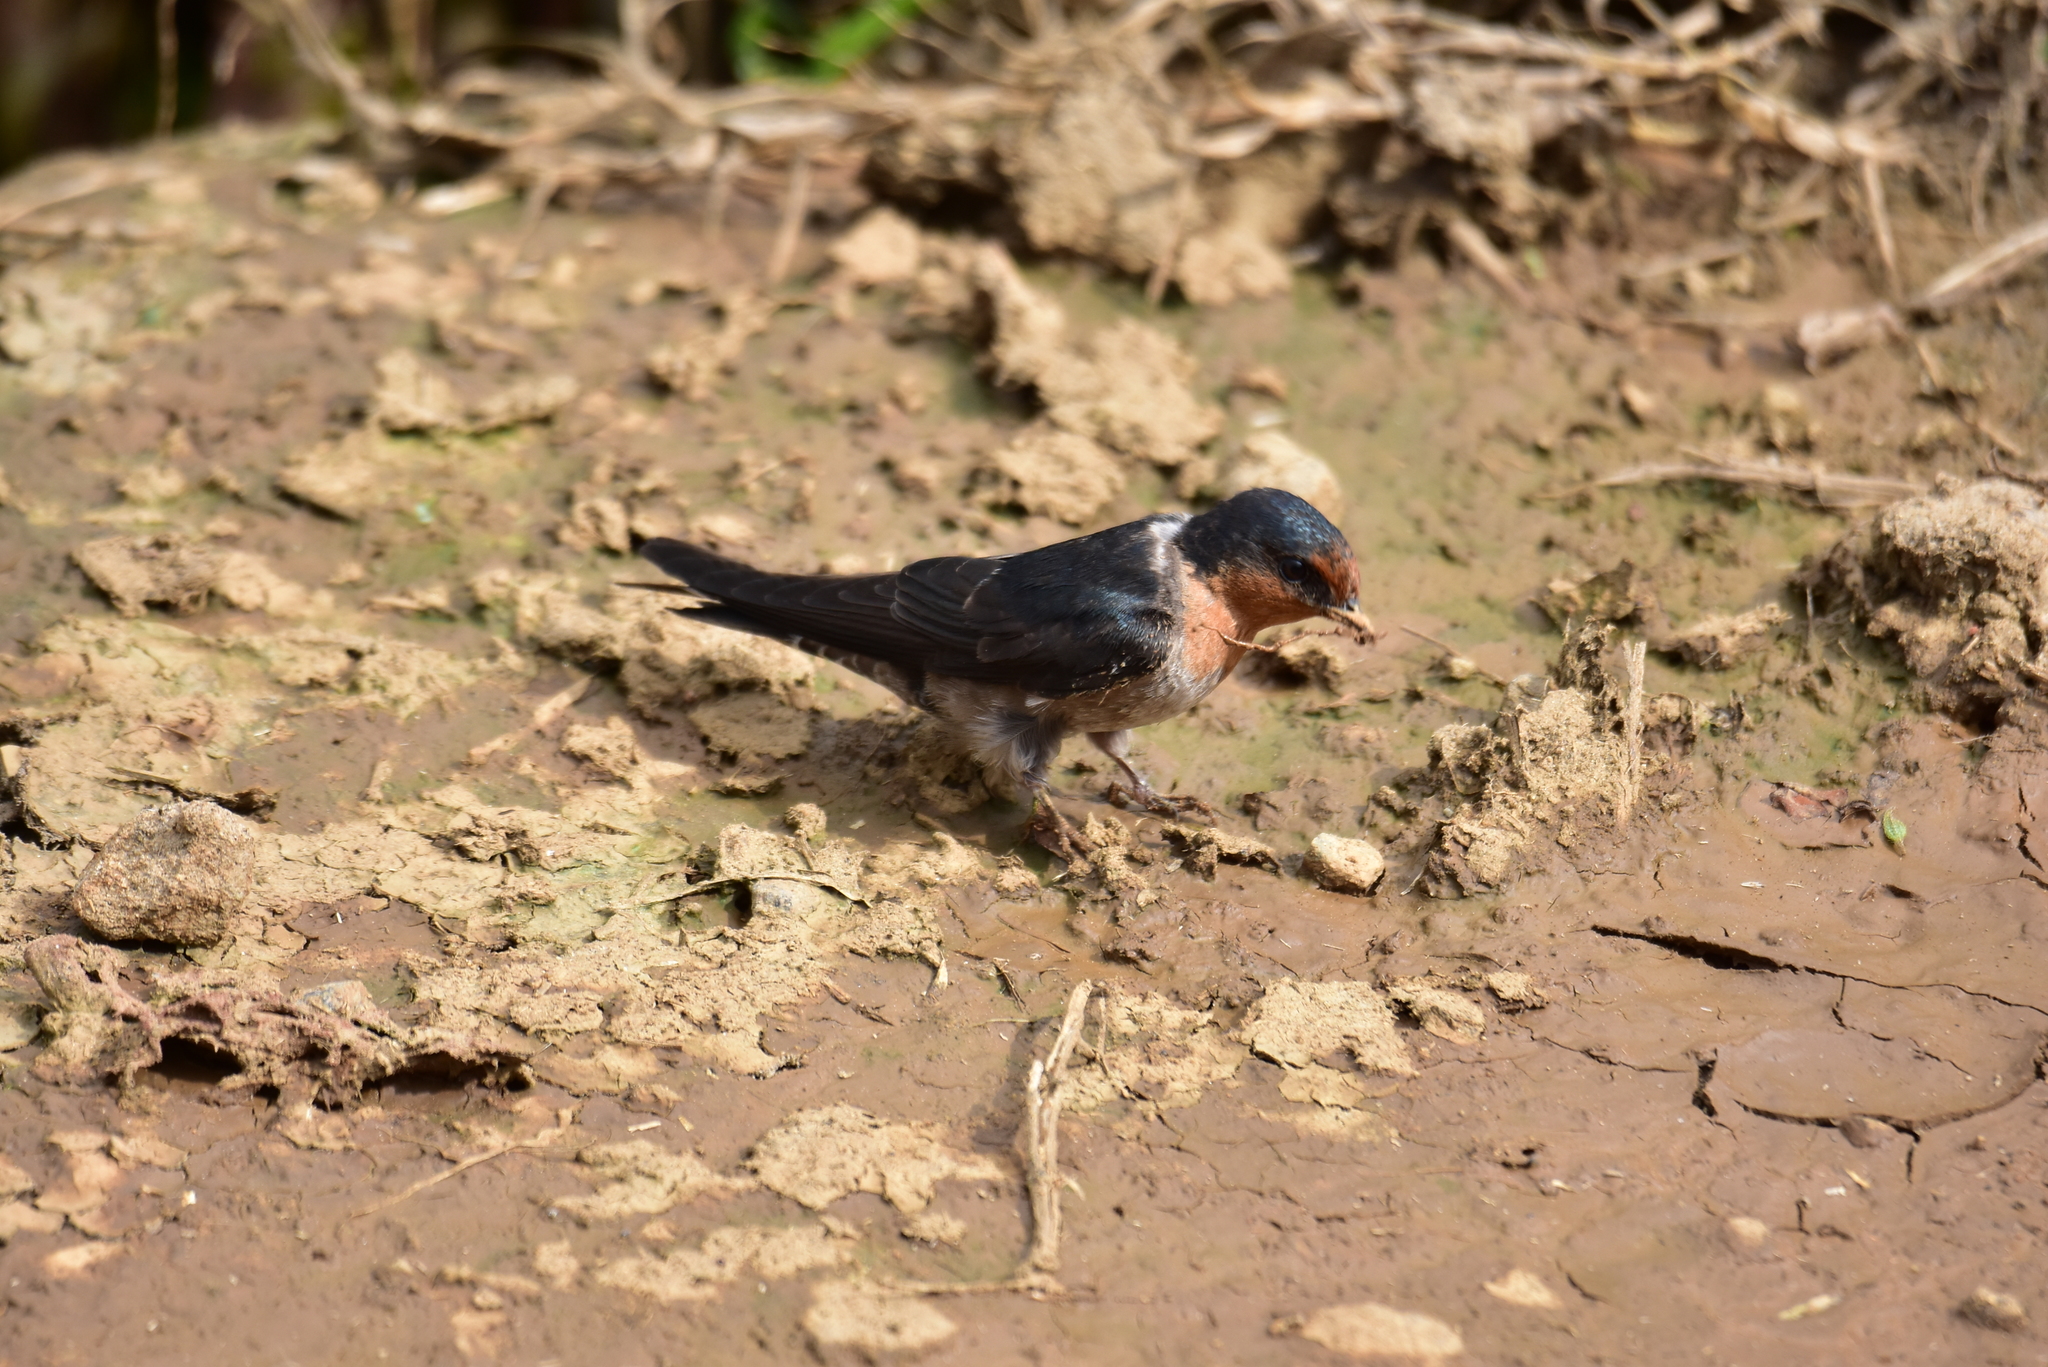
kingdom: Animalia
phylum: Chordata
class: Aves
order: Passeriformes
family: Hirundinidae
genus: Hirundo
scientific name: Hirundo domicola
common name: Hill swallow
